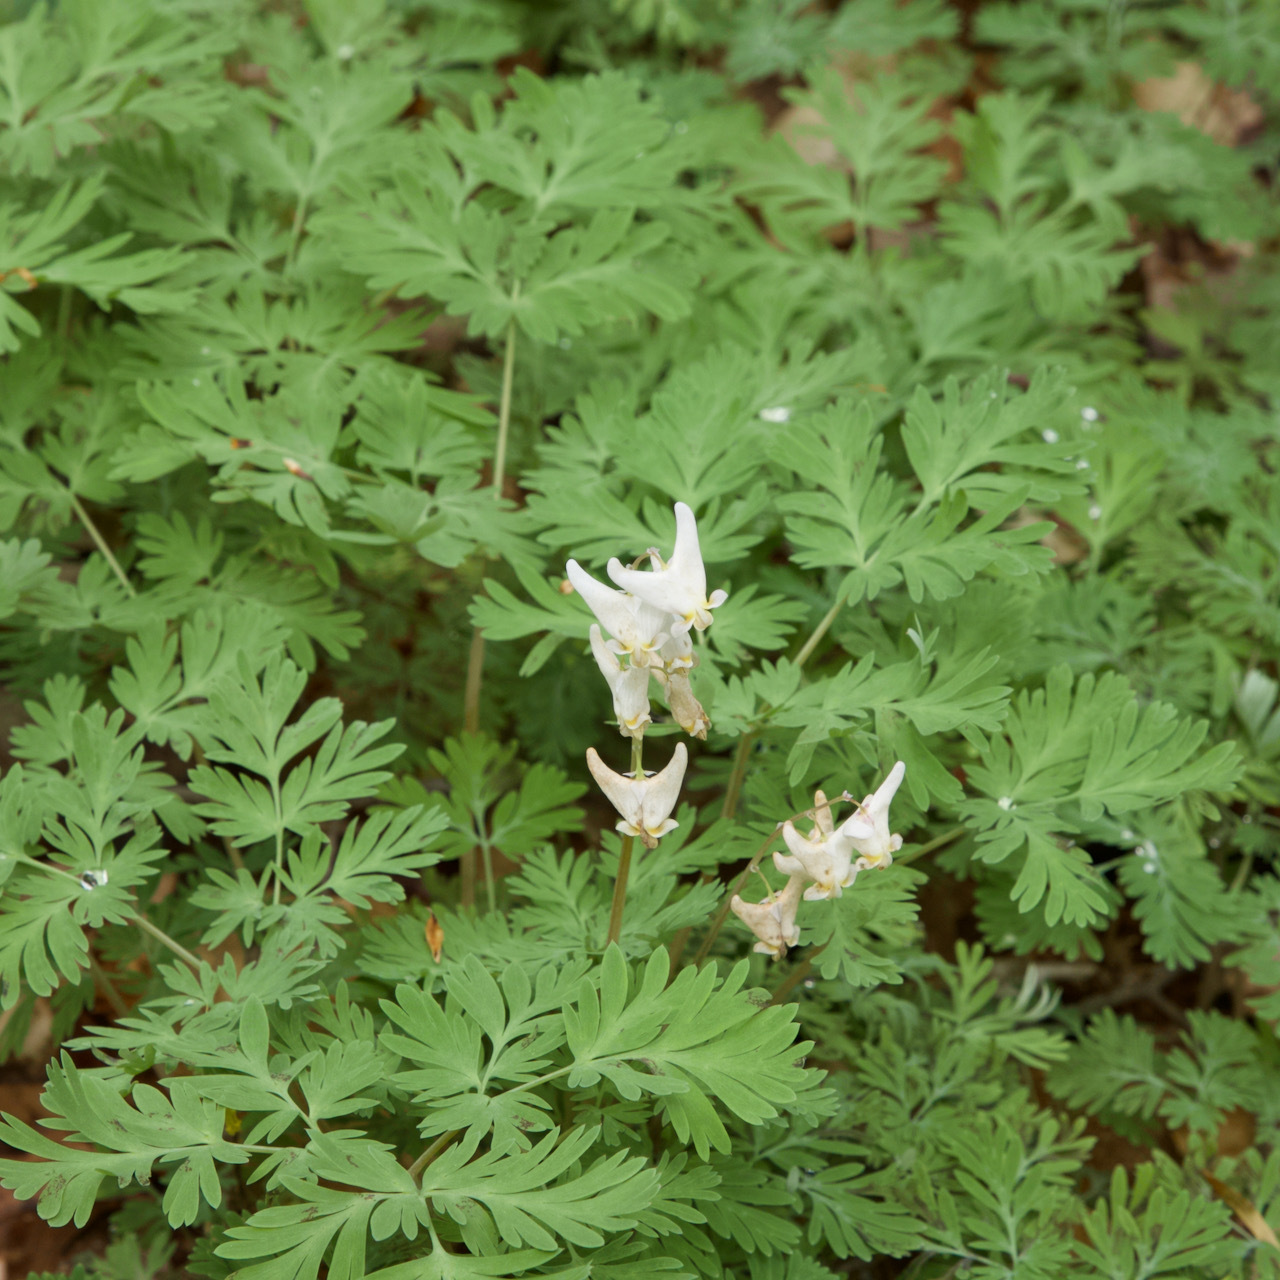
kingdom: Plantae
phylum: Tracheophyta
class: Magnoliopsida
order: Ranunculales
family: Papaveraceae
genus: Dicentra
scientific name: Dicentra cucullaria
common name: Dutchman's breeches
